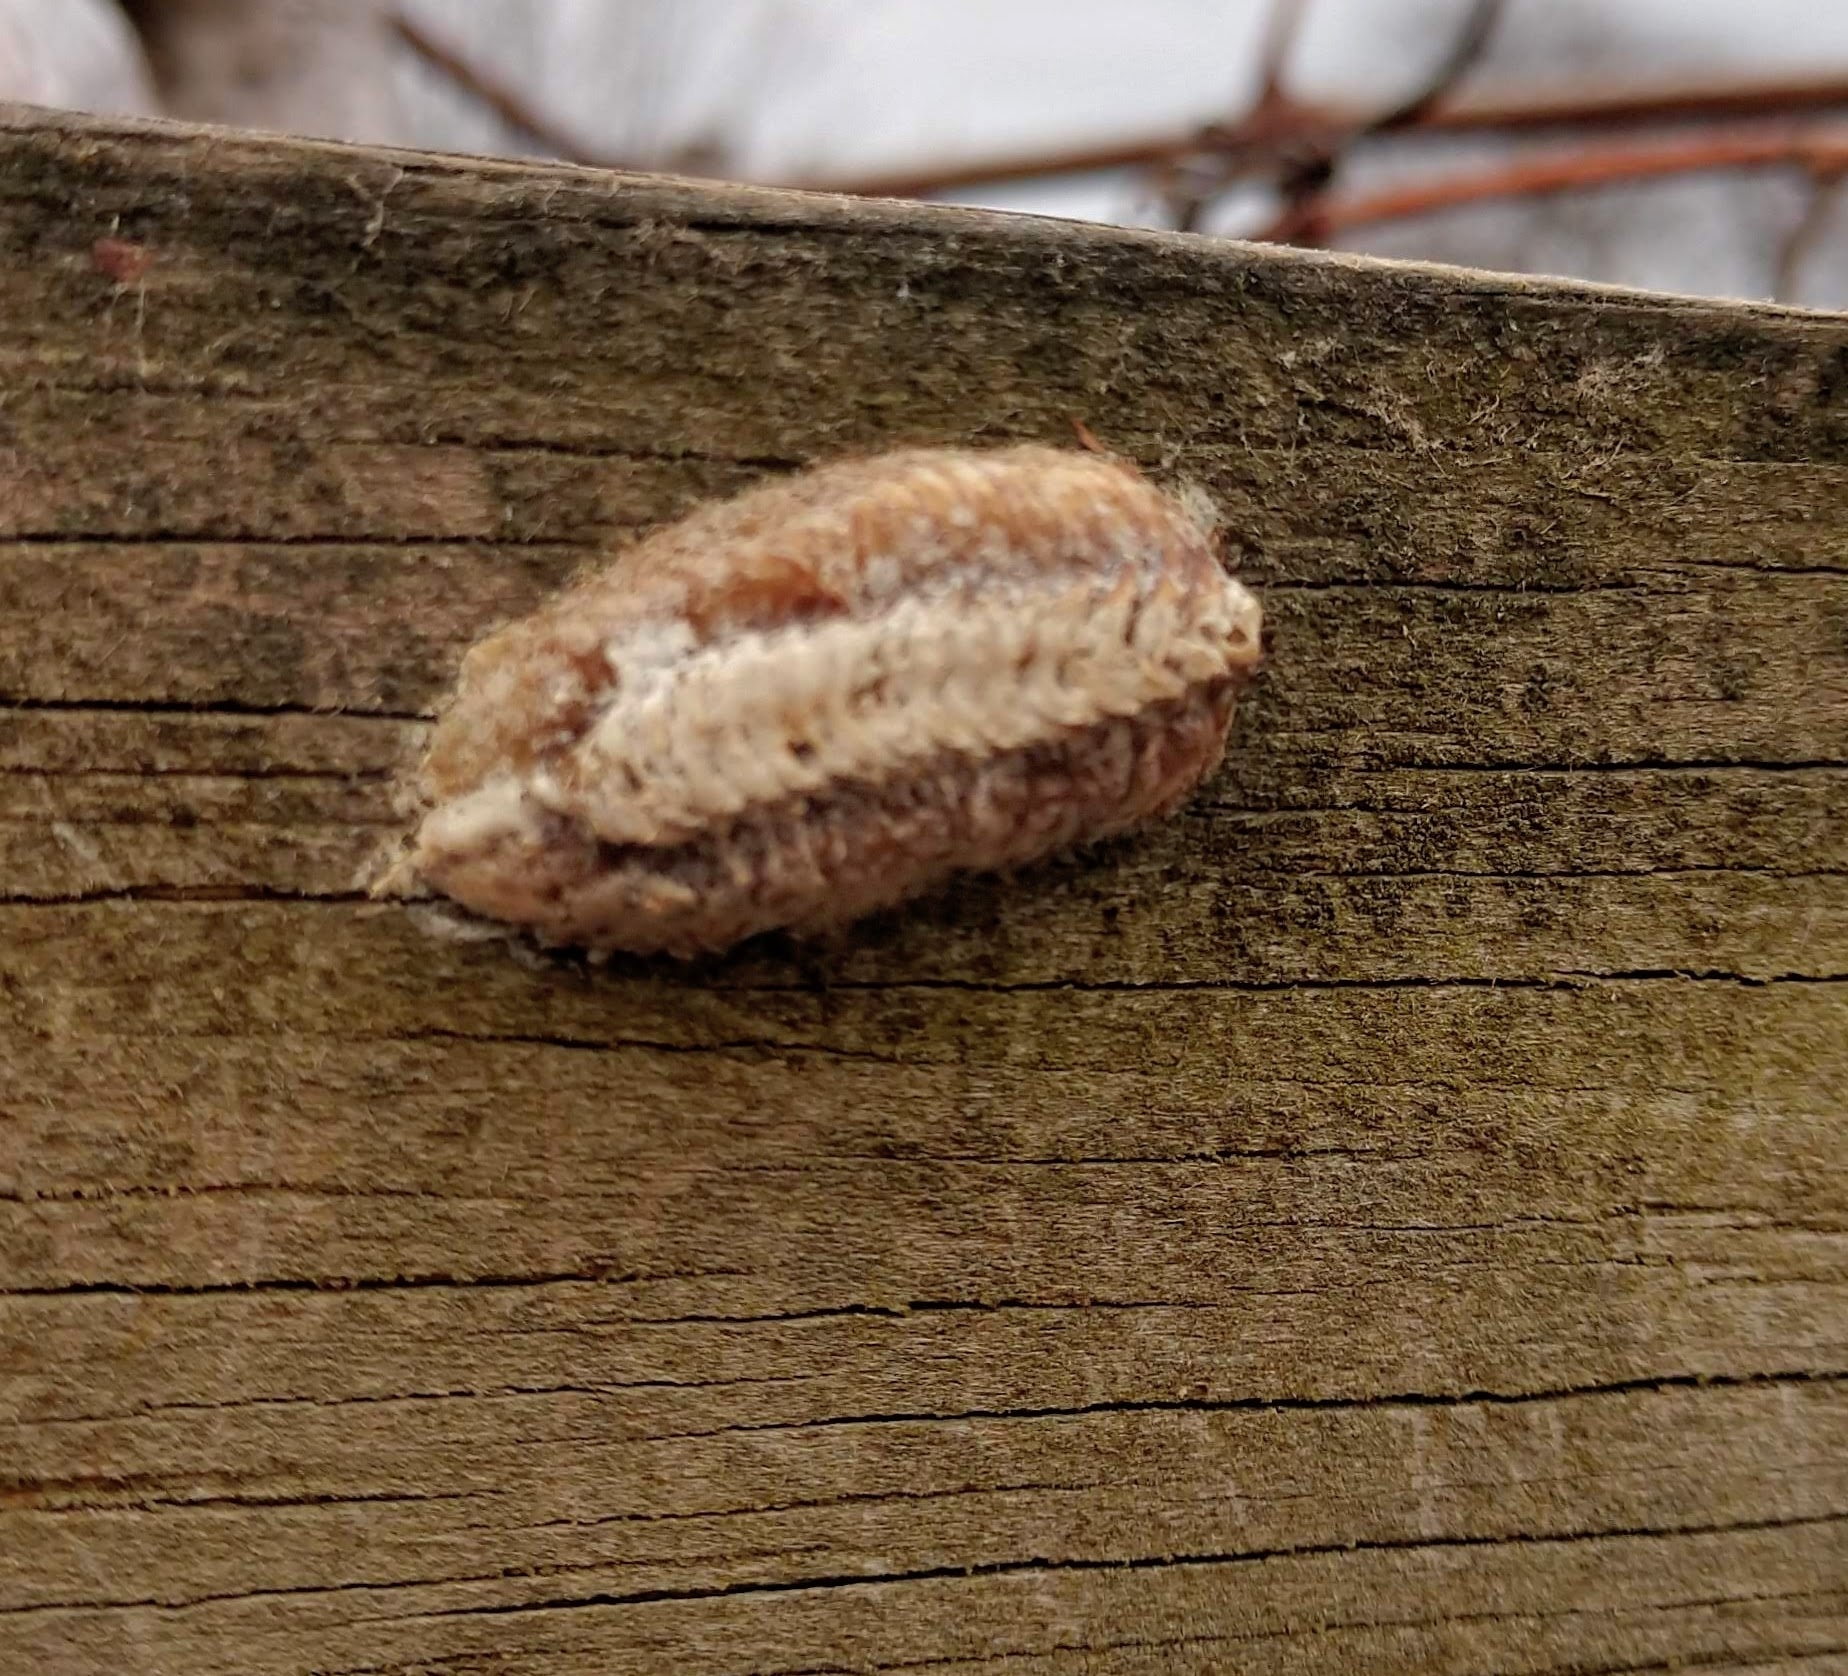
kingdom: Animalia
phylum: Arthropoda
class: Insecta
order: Mantodea
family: Mantidae
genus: Stagmomantis
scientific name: Stagmomantis carolina
